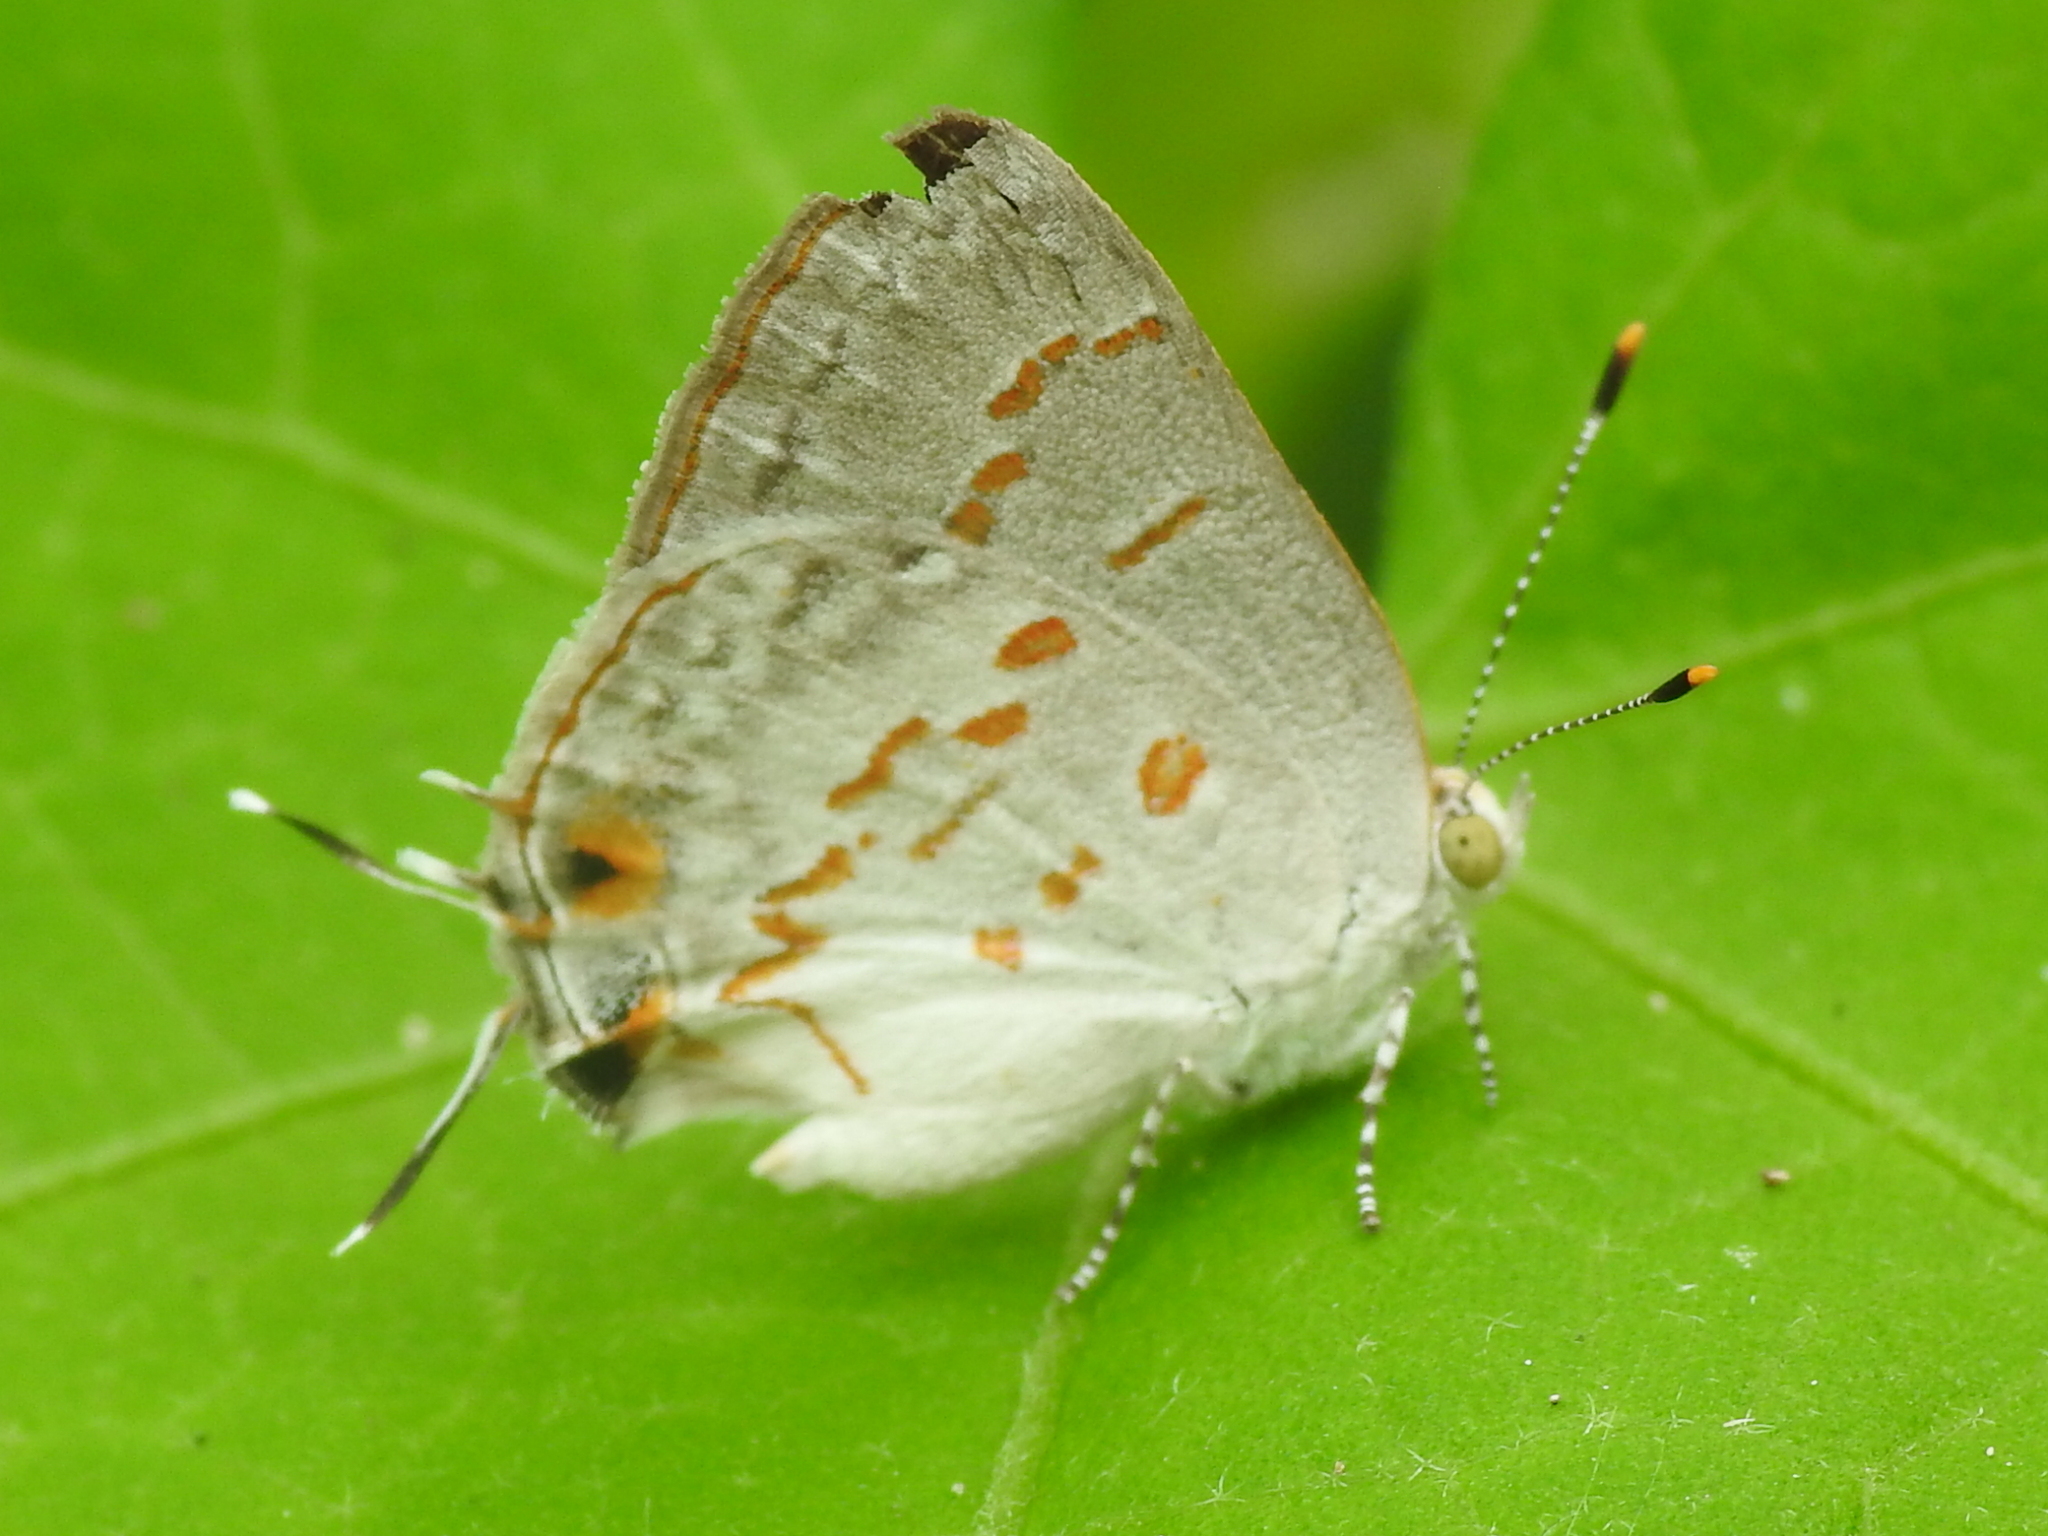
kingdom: Animalia
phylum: Arthropoda
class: Insecta
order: Lepidoptera
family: Lycaenidae
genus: Ministrymon
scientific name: Ministrymon clytie
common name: Clytie ministreak
